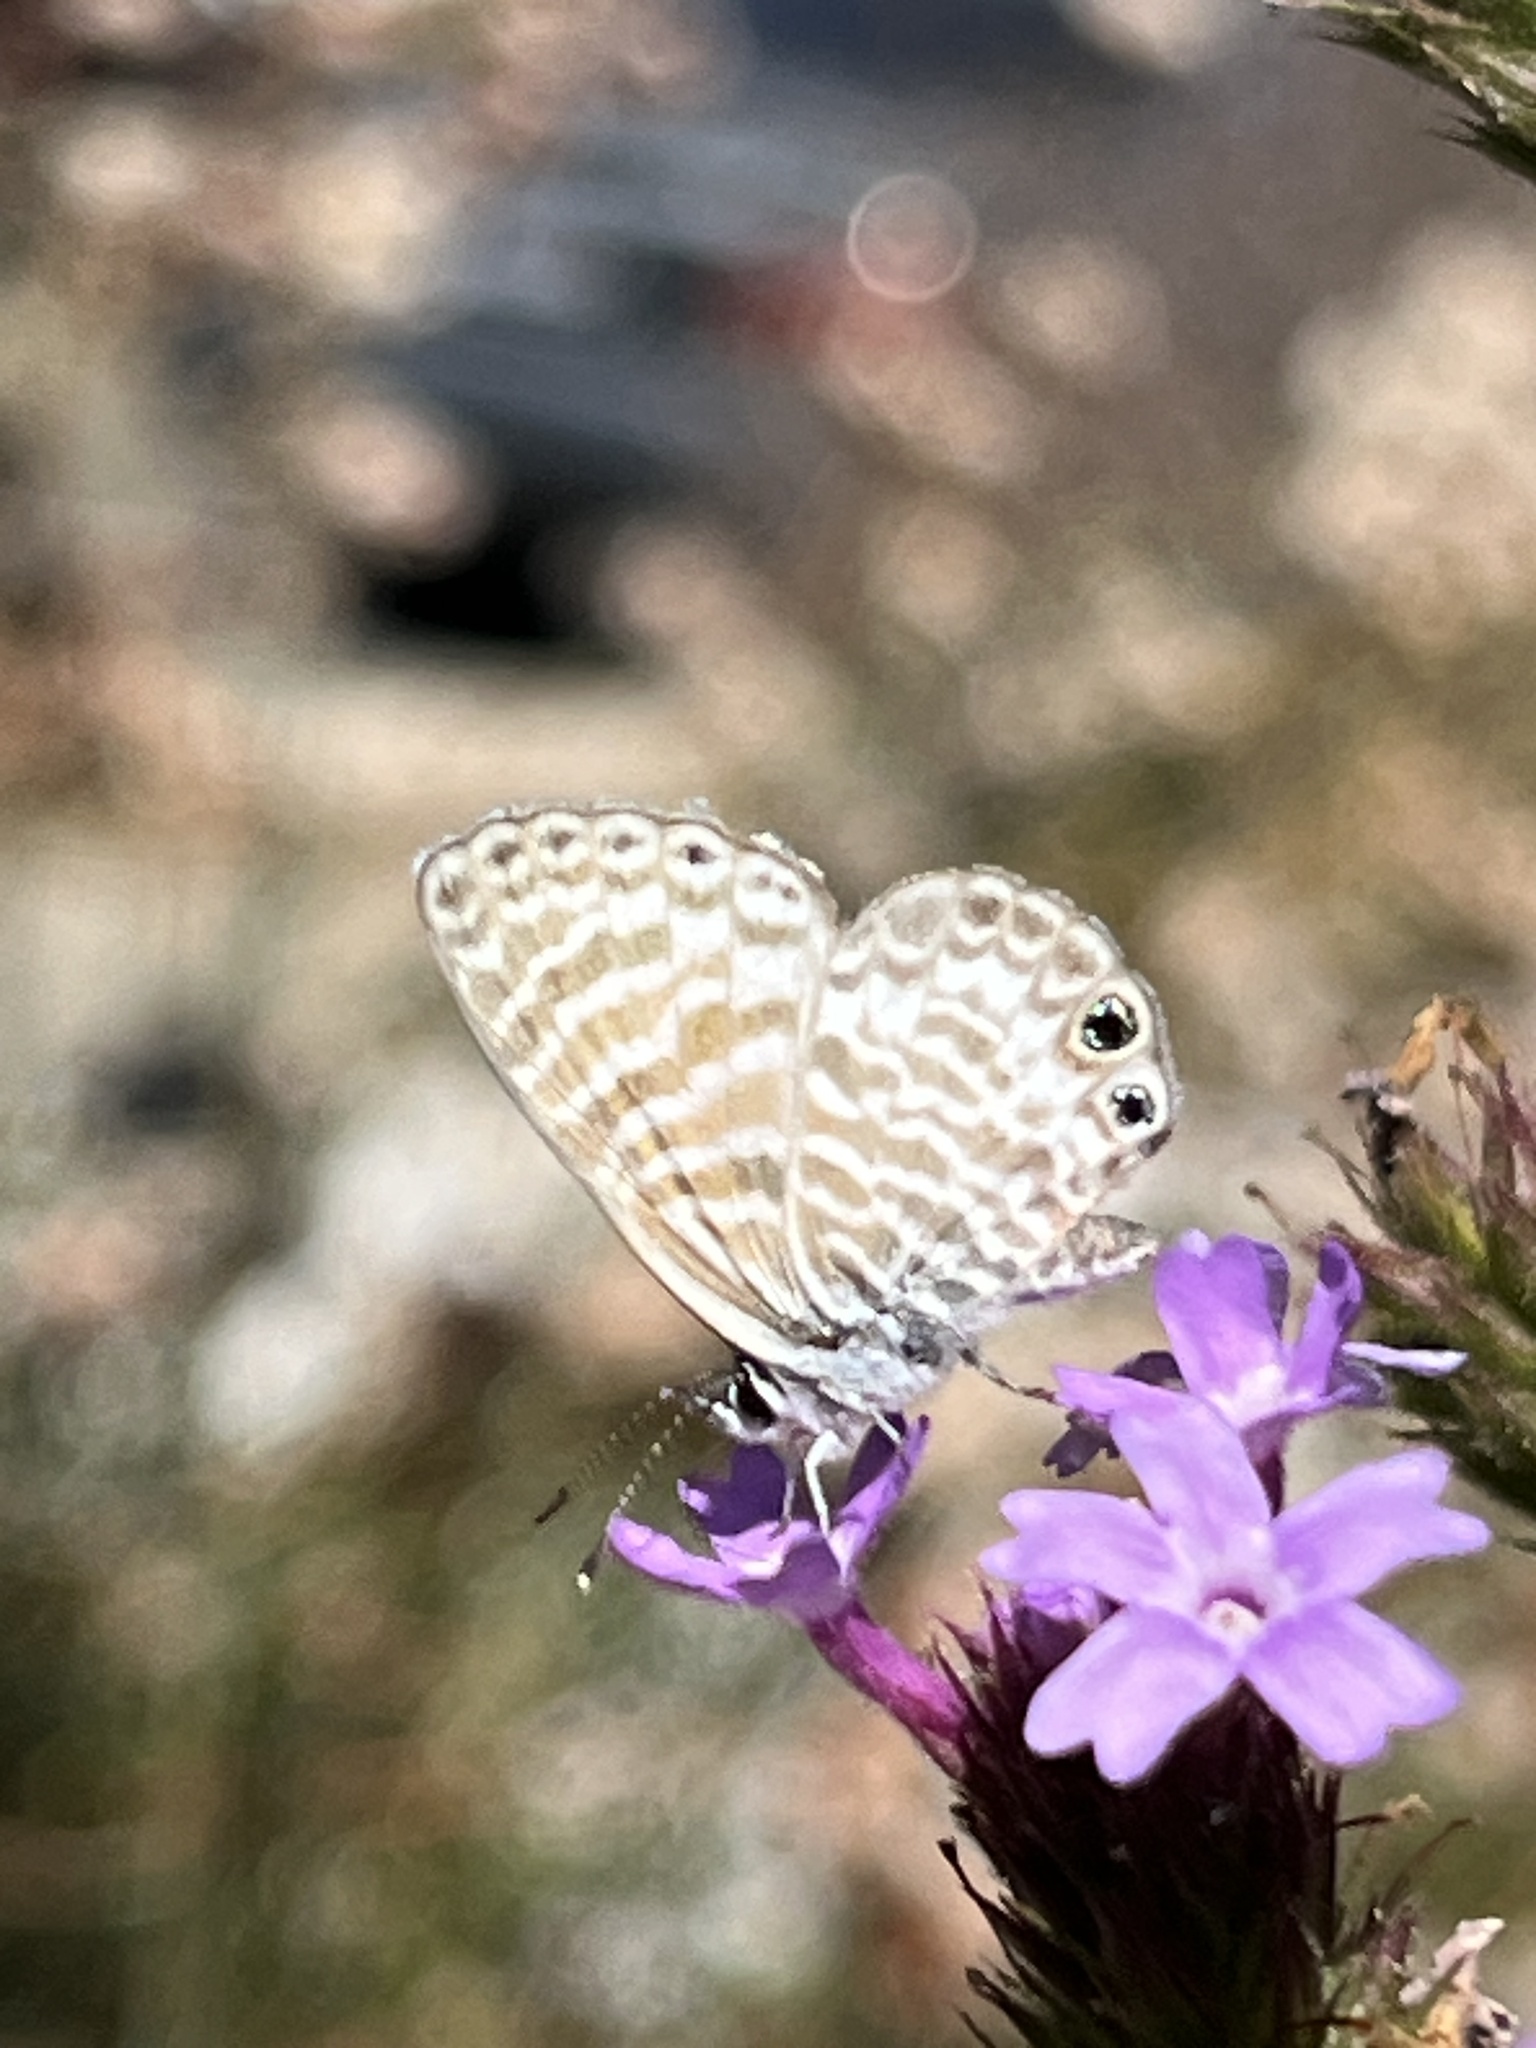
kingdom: Animalia
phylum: Arthropoda
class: Insecta
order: Lepidoptera
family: Lycaenidae
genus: Leptotes
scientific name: Leptotes marina
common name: Marine blue
